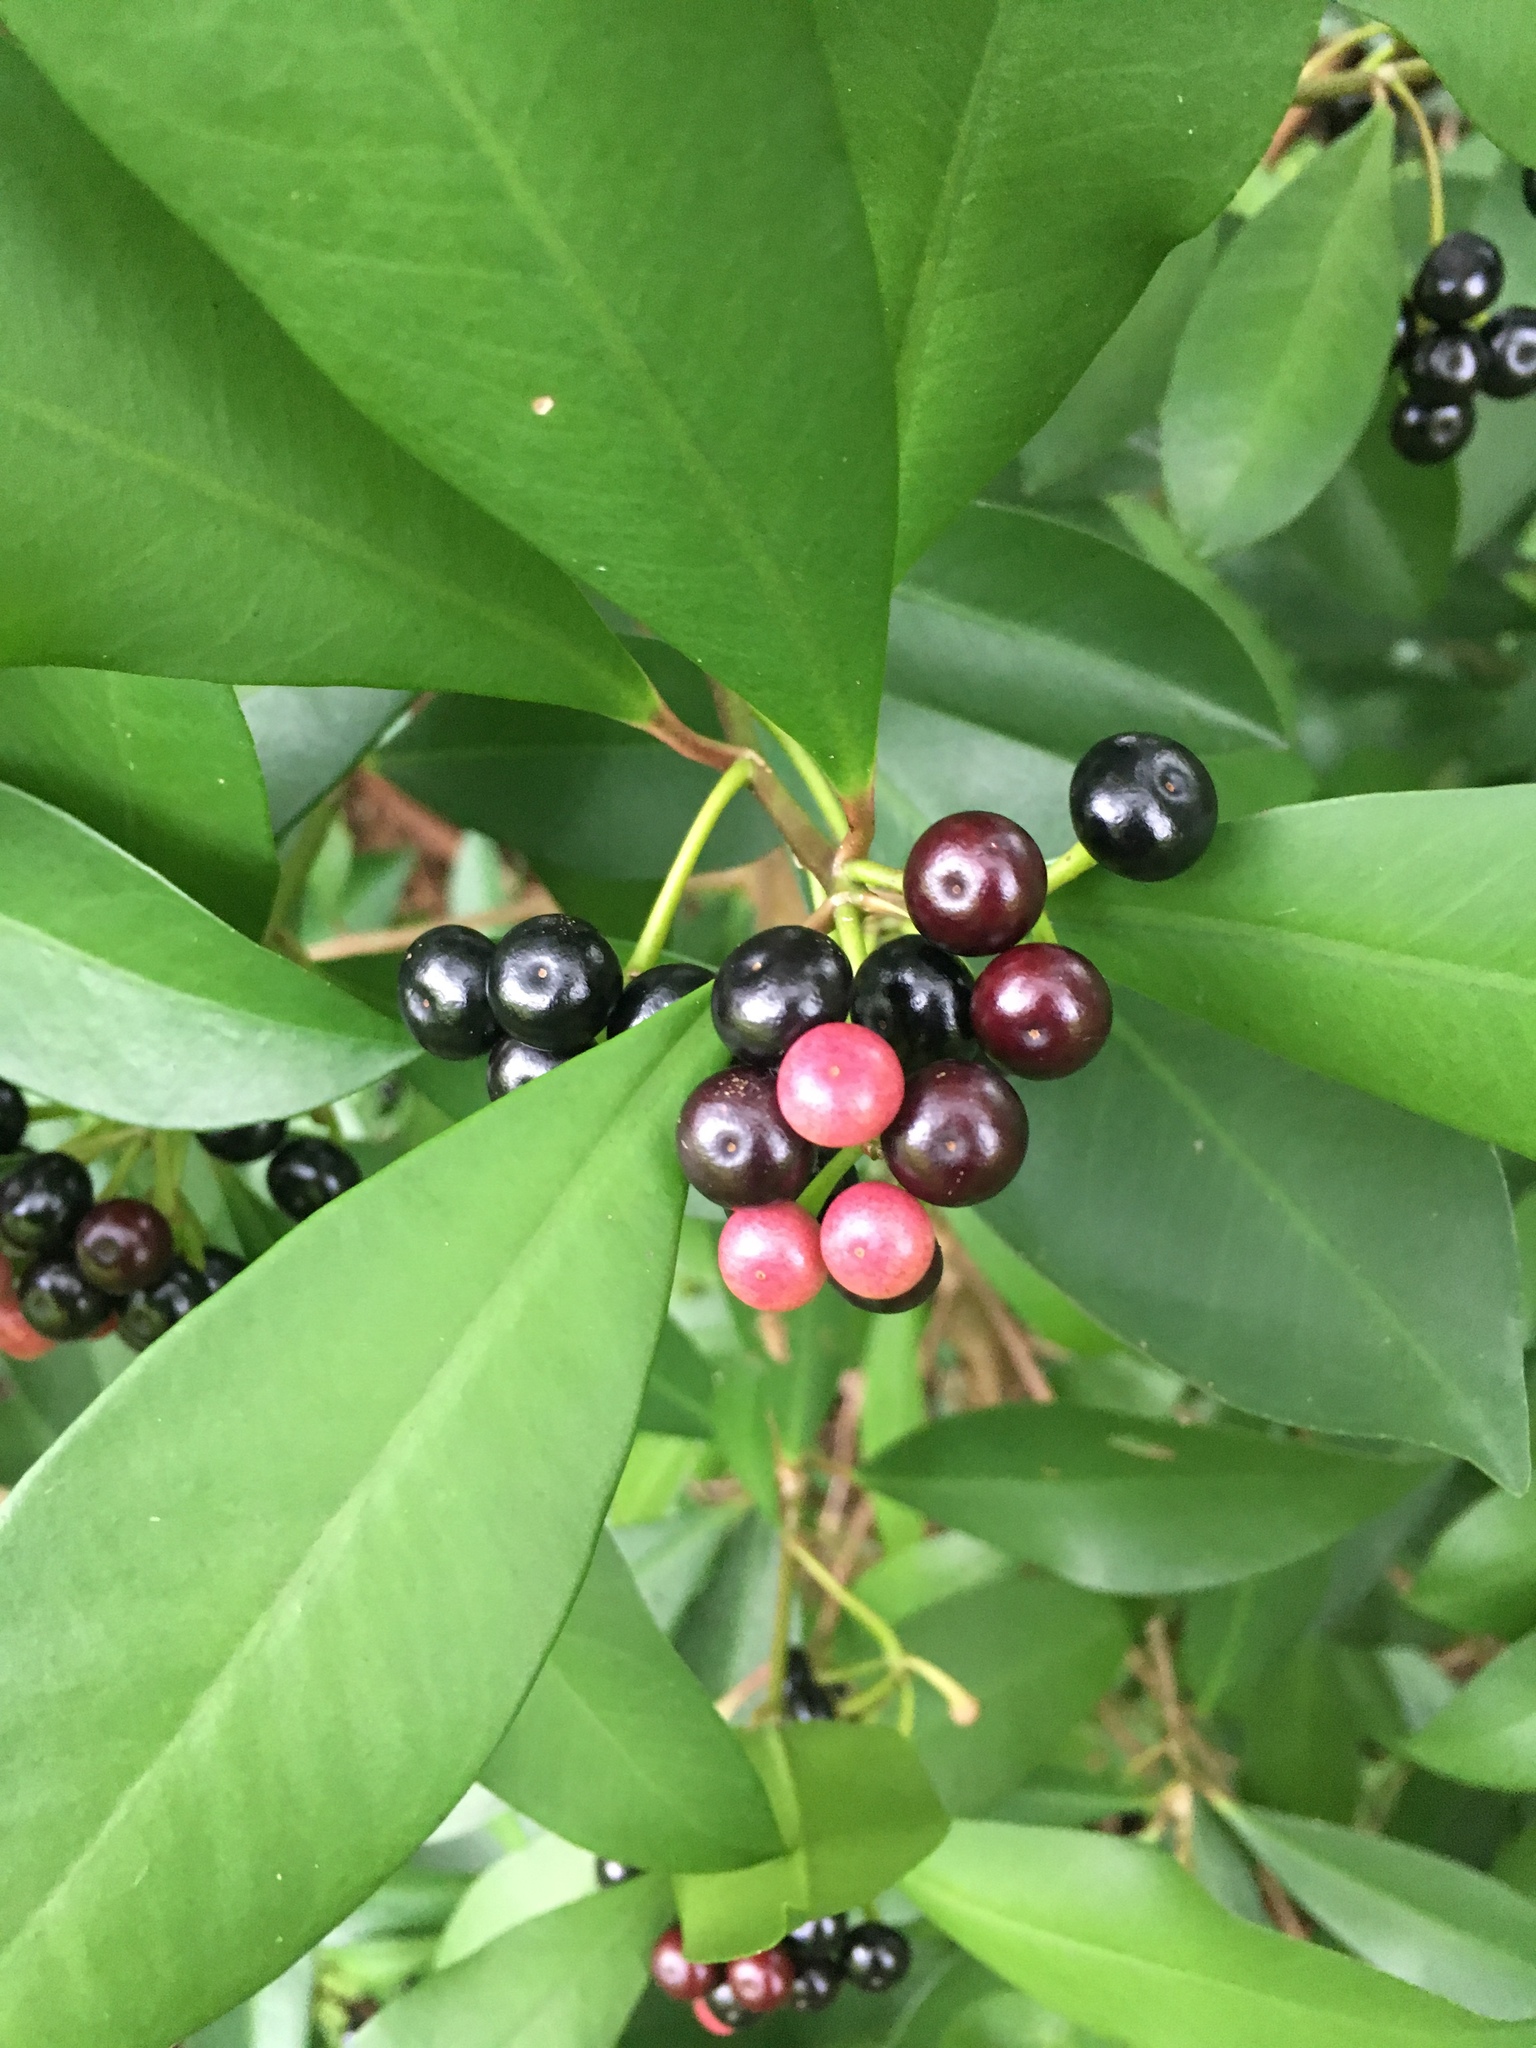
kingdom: Plantae
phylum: Tracheophyta
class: Magnoliopsida
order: Ericales
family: Primulaceae
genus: Ardisia
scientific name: Ardisia elliptica
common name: Shoebutton
